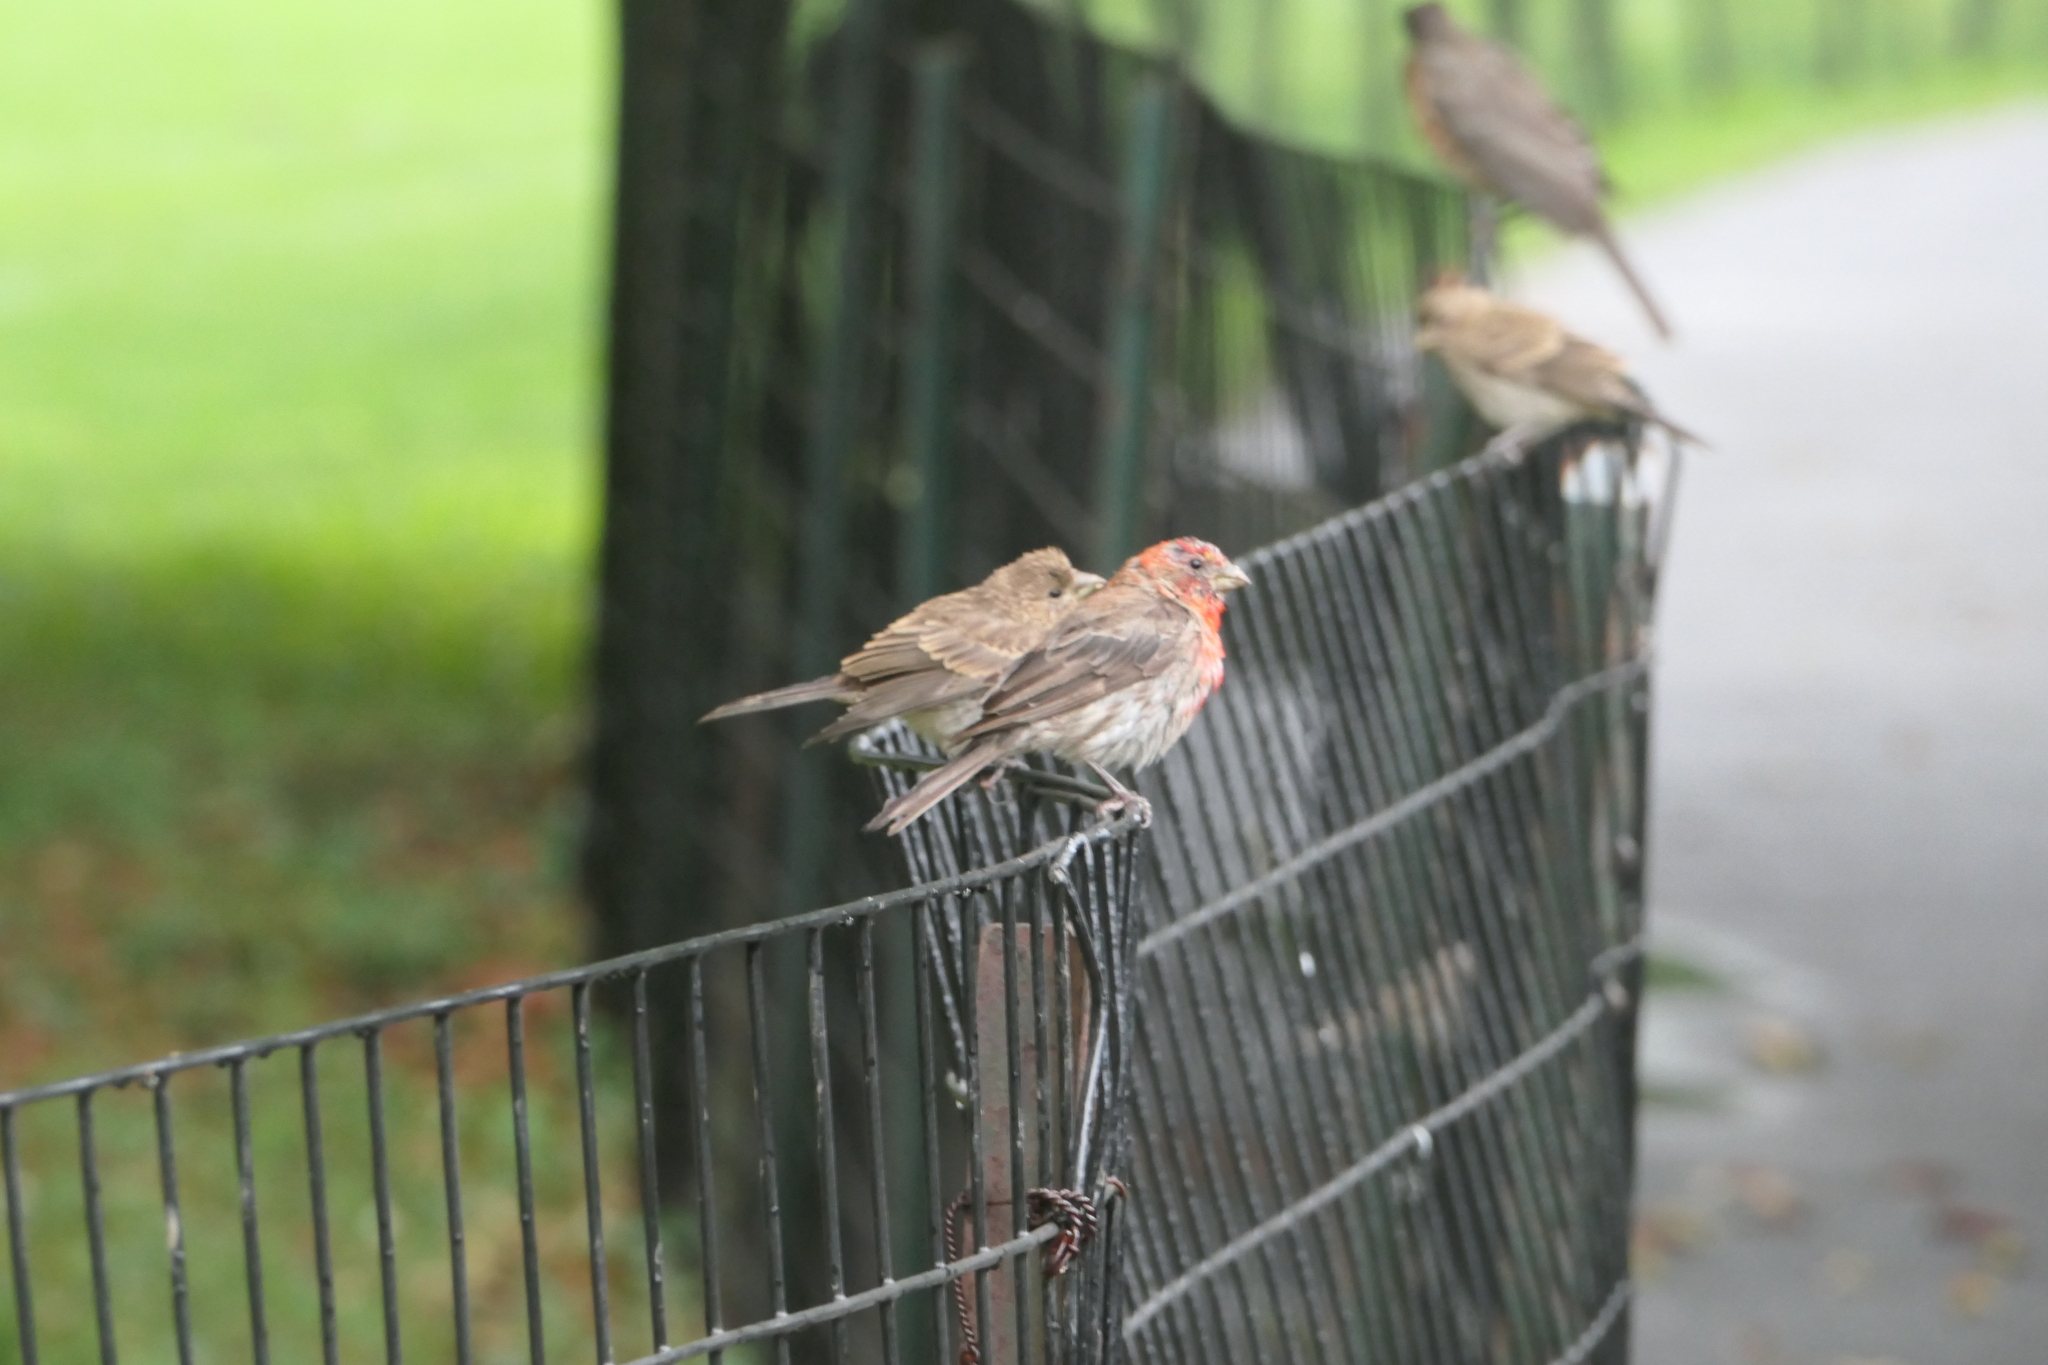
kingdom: Animalia
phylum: Chordata
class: Aves
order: Passeriformes
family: Fringillidae
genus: Haemorhous
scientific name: Haemorhous mexicanus
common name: House finch
